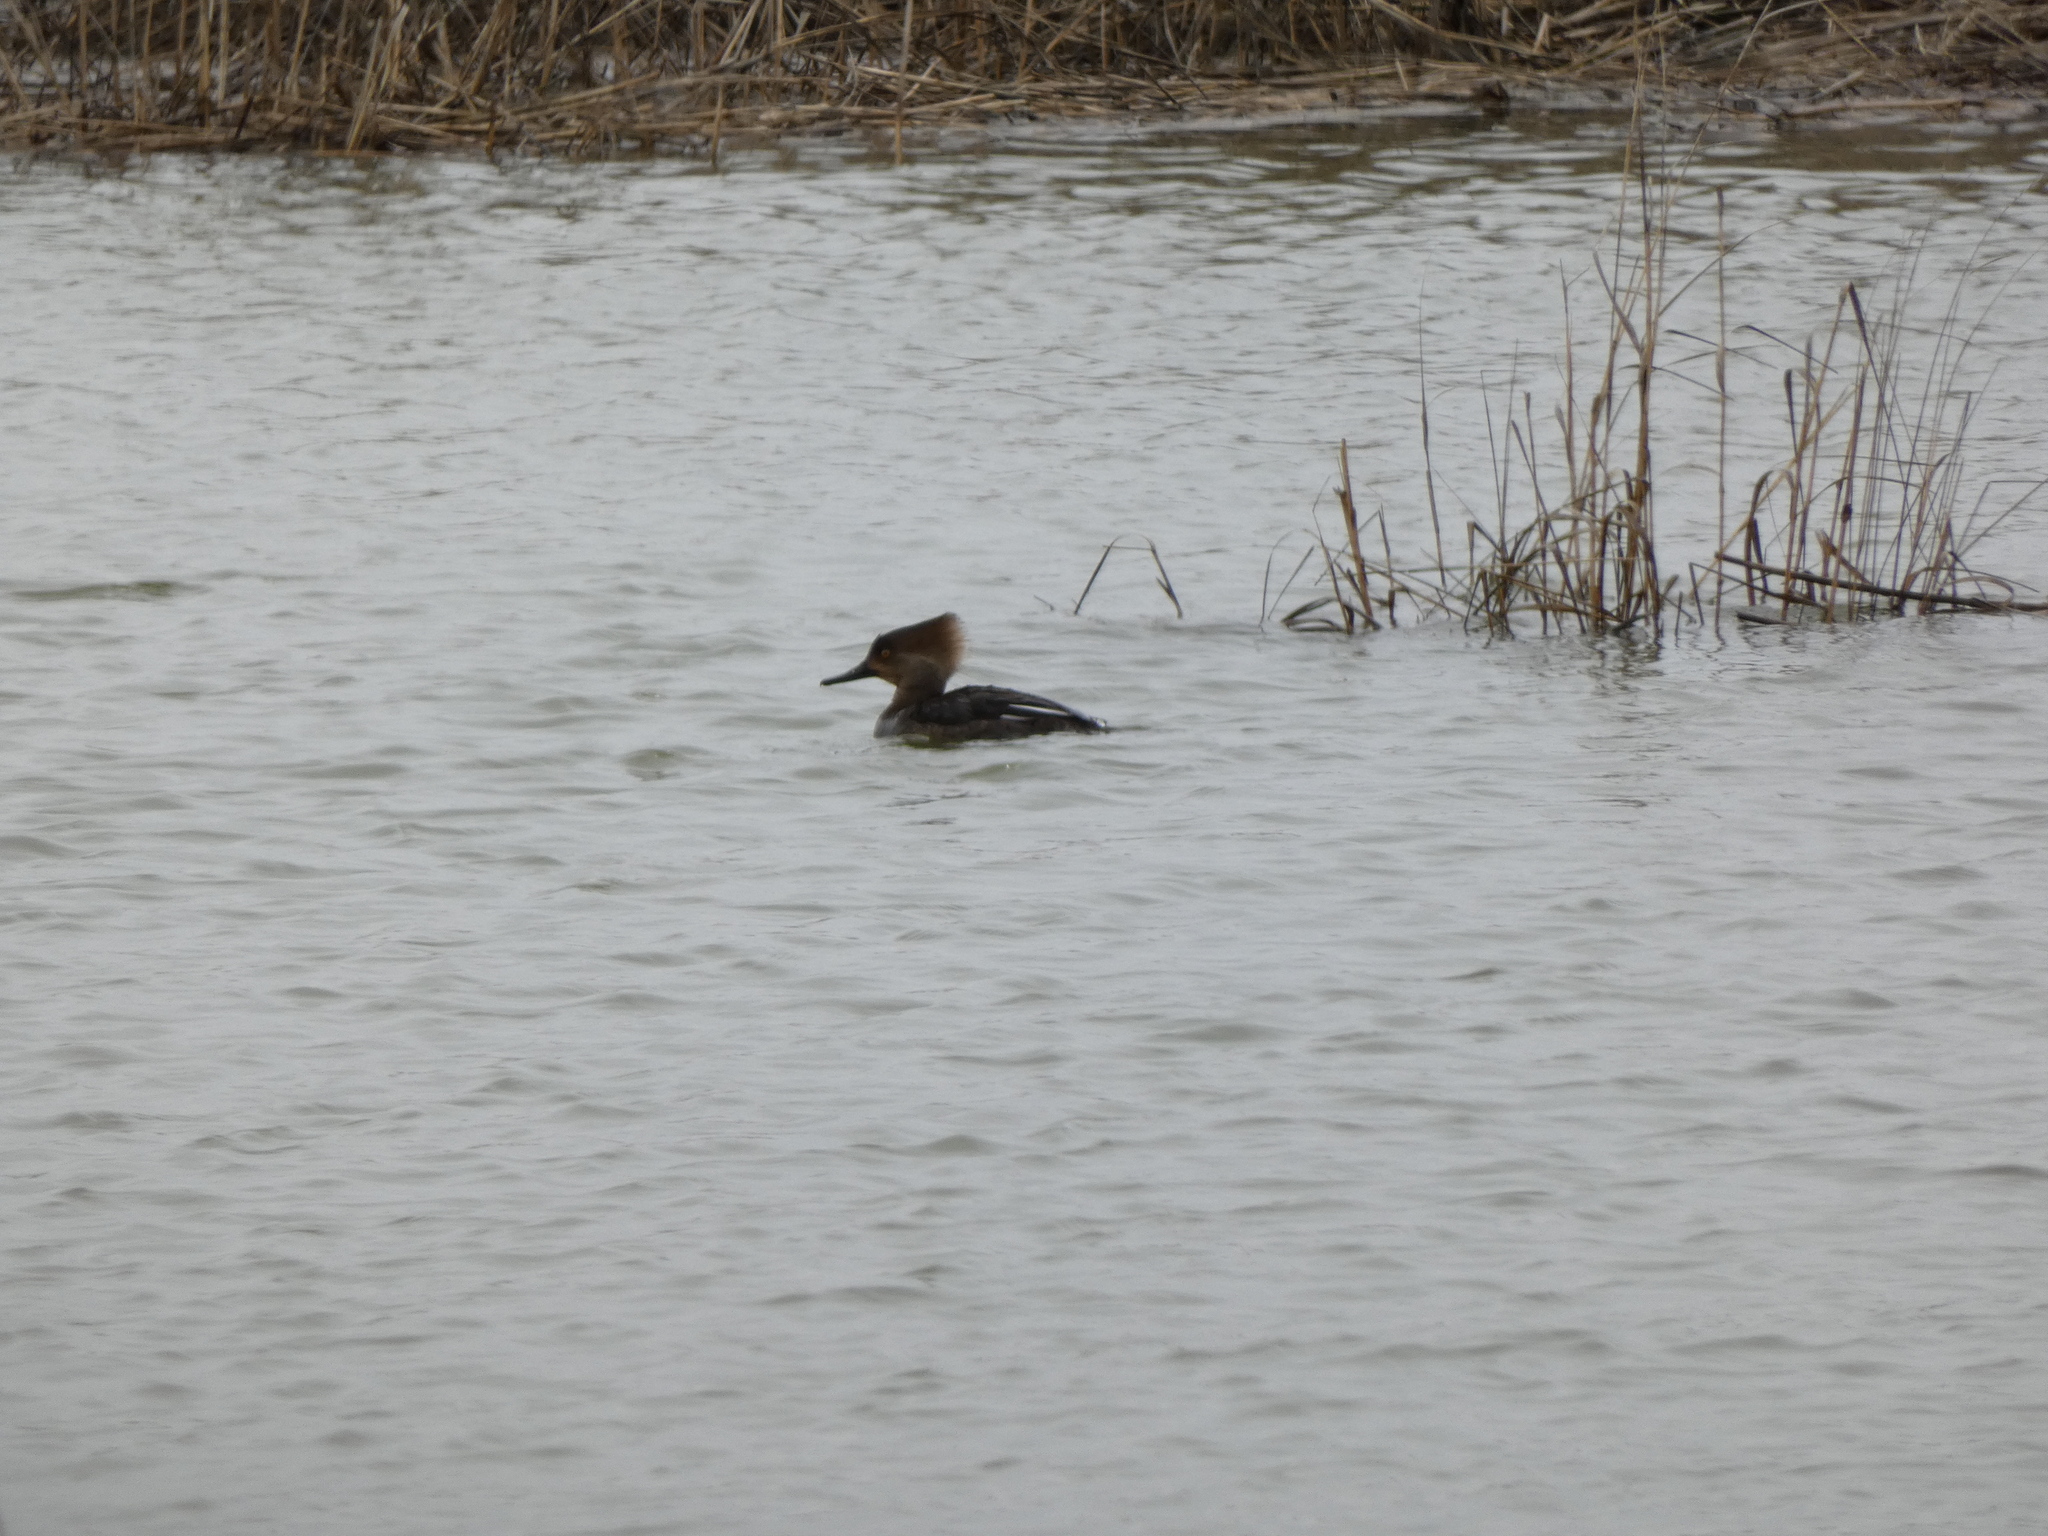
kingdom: Animalia
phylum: Chordata
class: Aves
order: Anseriformes
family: Anatidae
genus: Lophodytes
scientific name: Lophodytes cucullatus
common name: Hooded merganser
